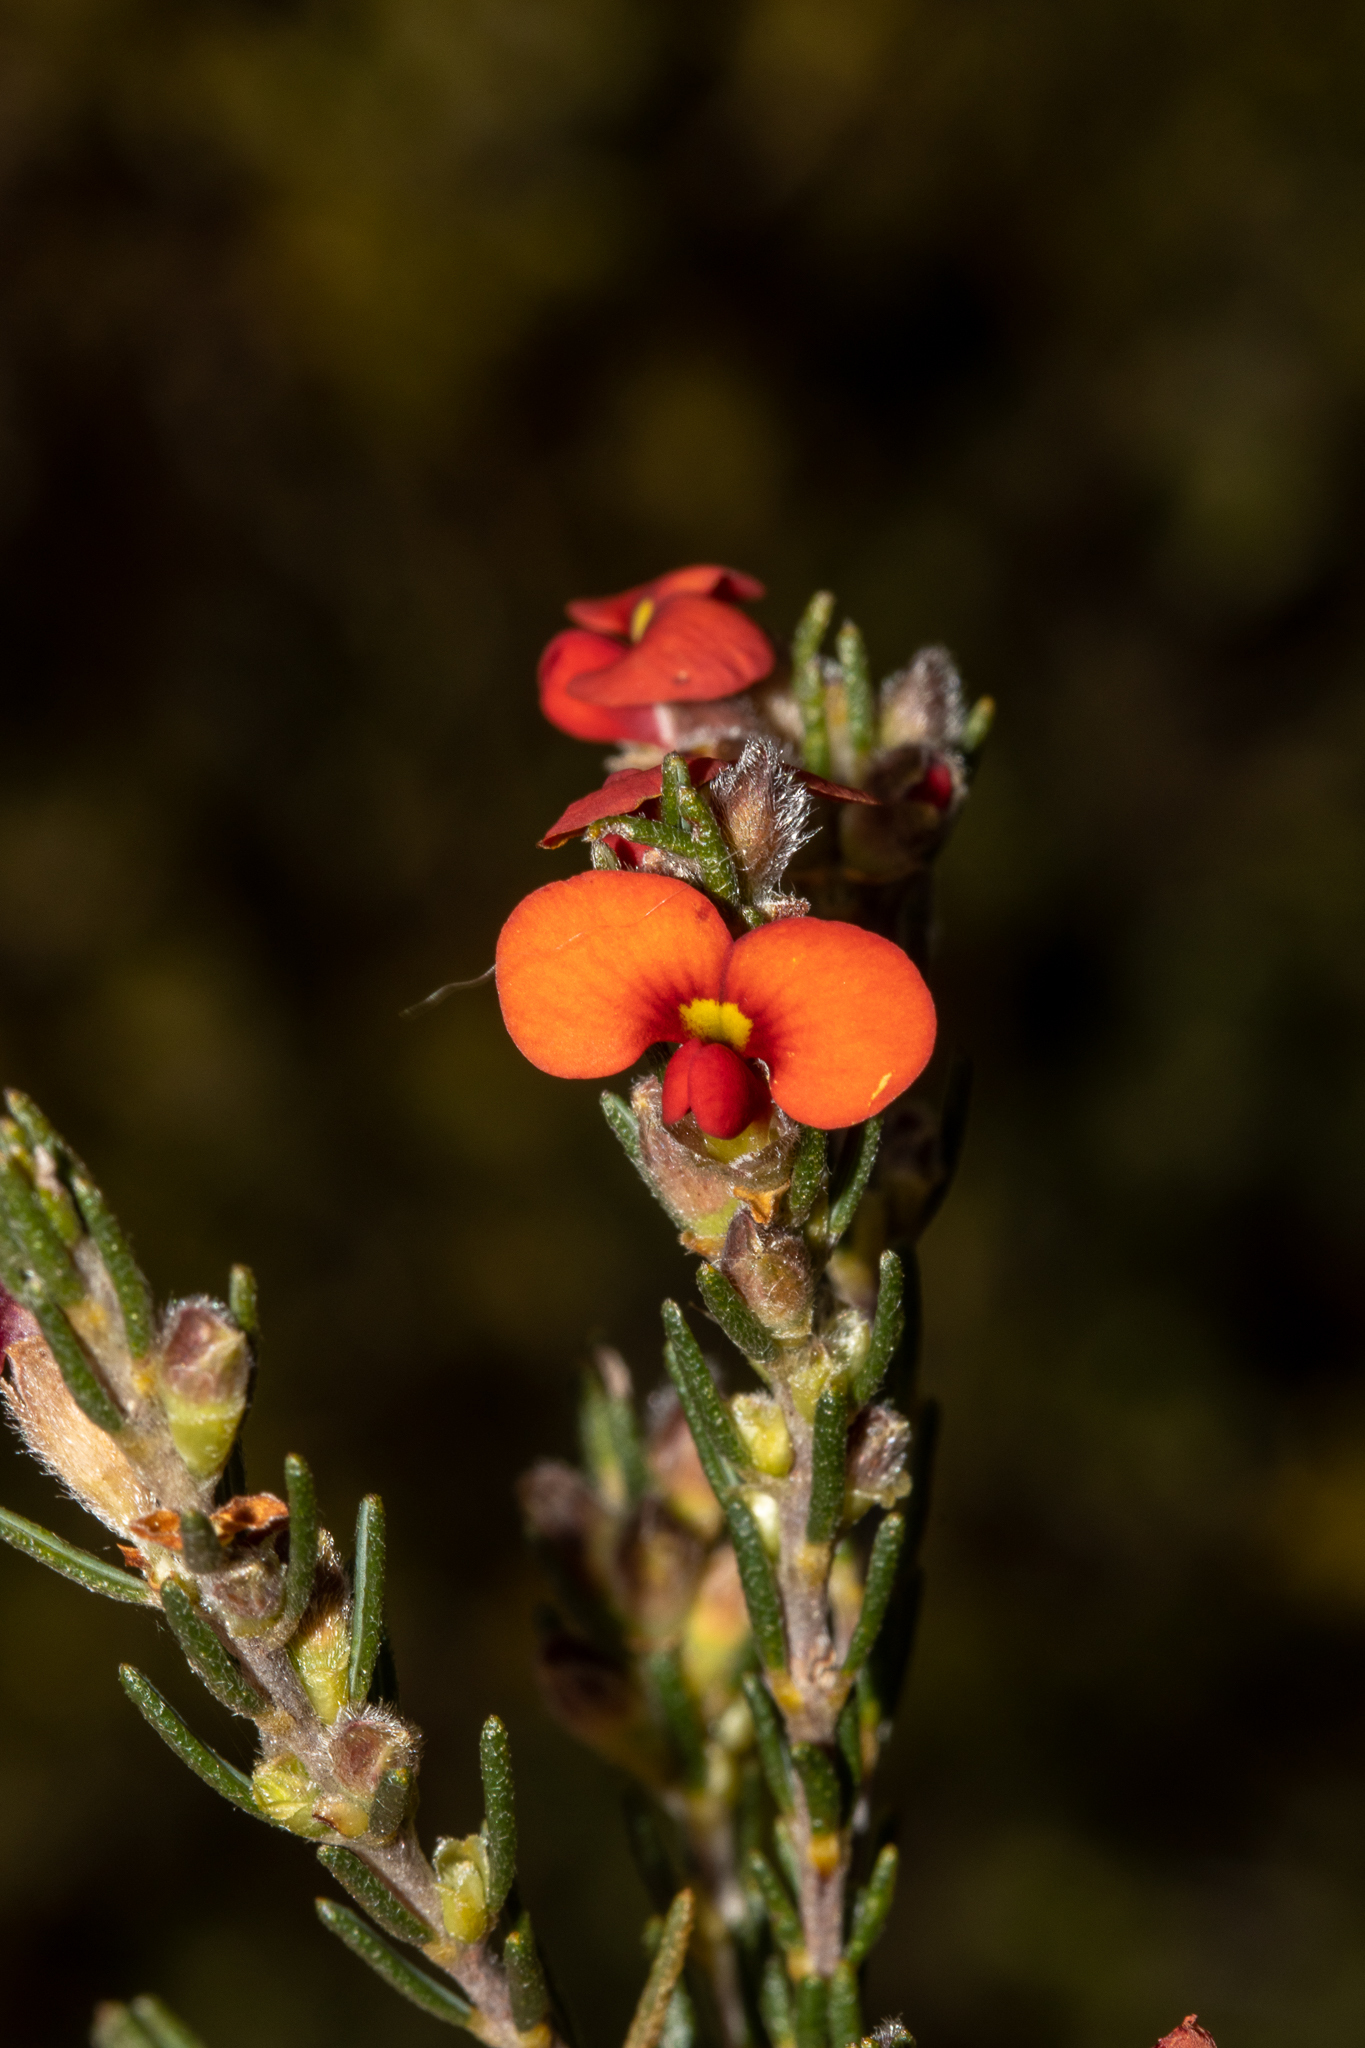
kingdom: Plantae
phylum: Tracheophyta
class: Magnoliopsida
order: Fabales
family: Fabaceae
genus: Dillwynia
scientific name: Dillwynia sericea
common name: Showy parrot-pea
